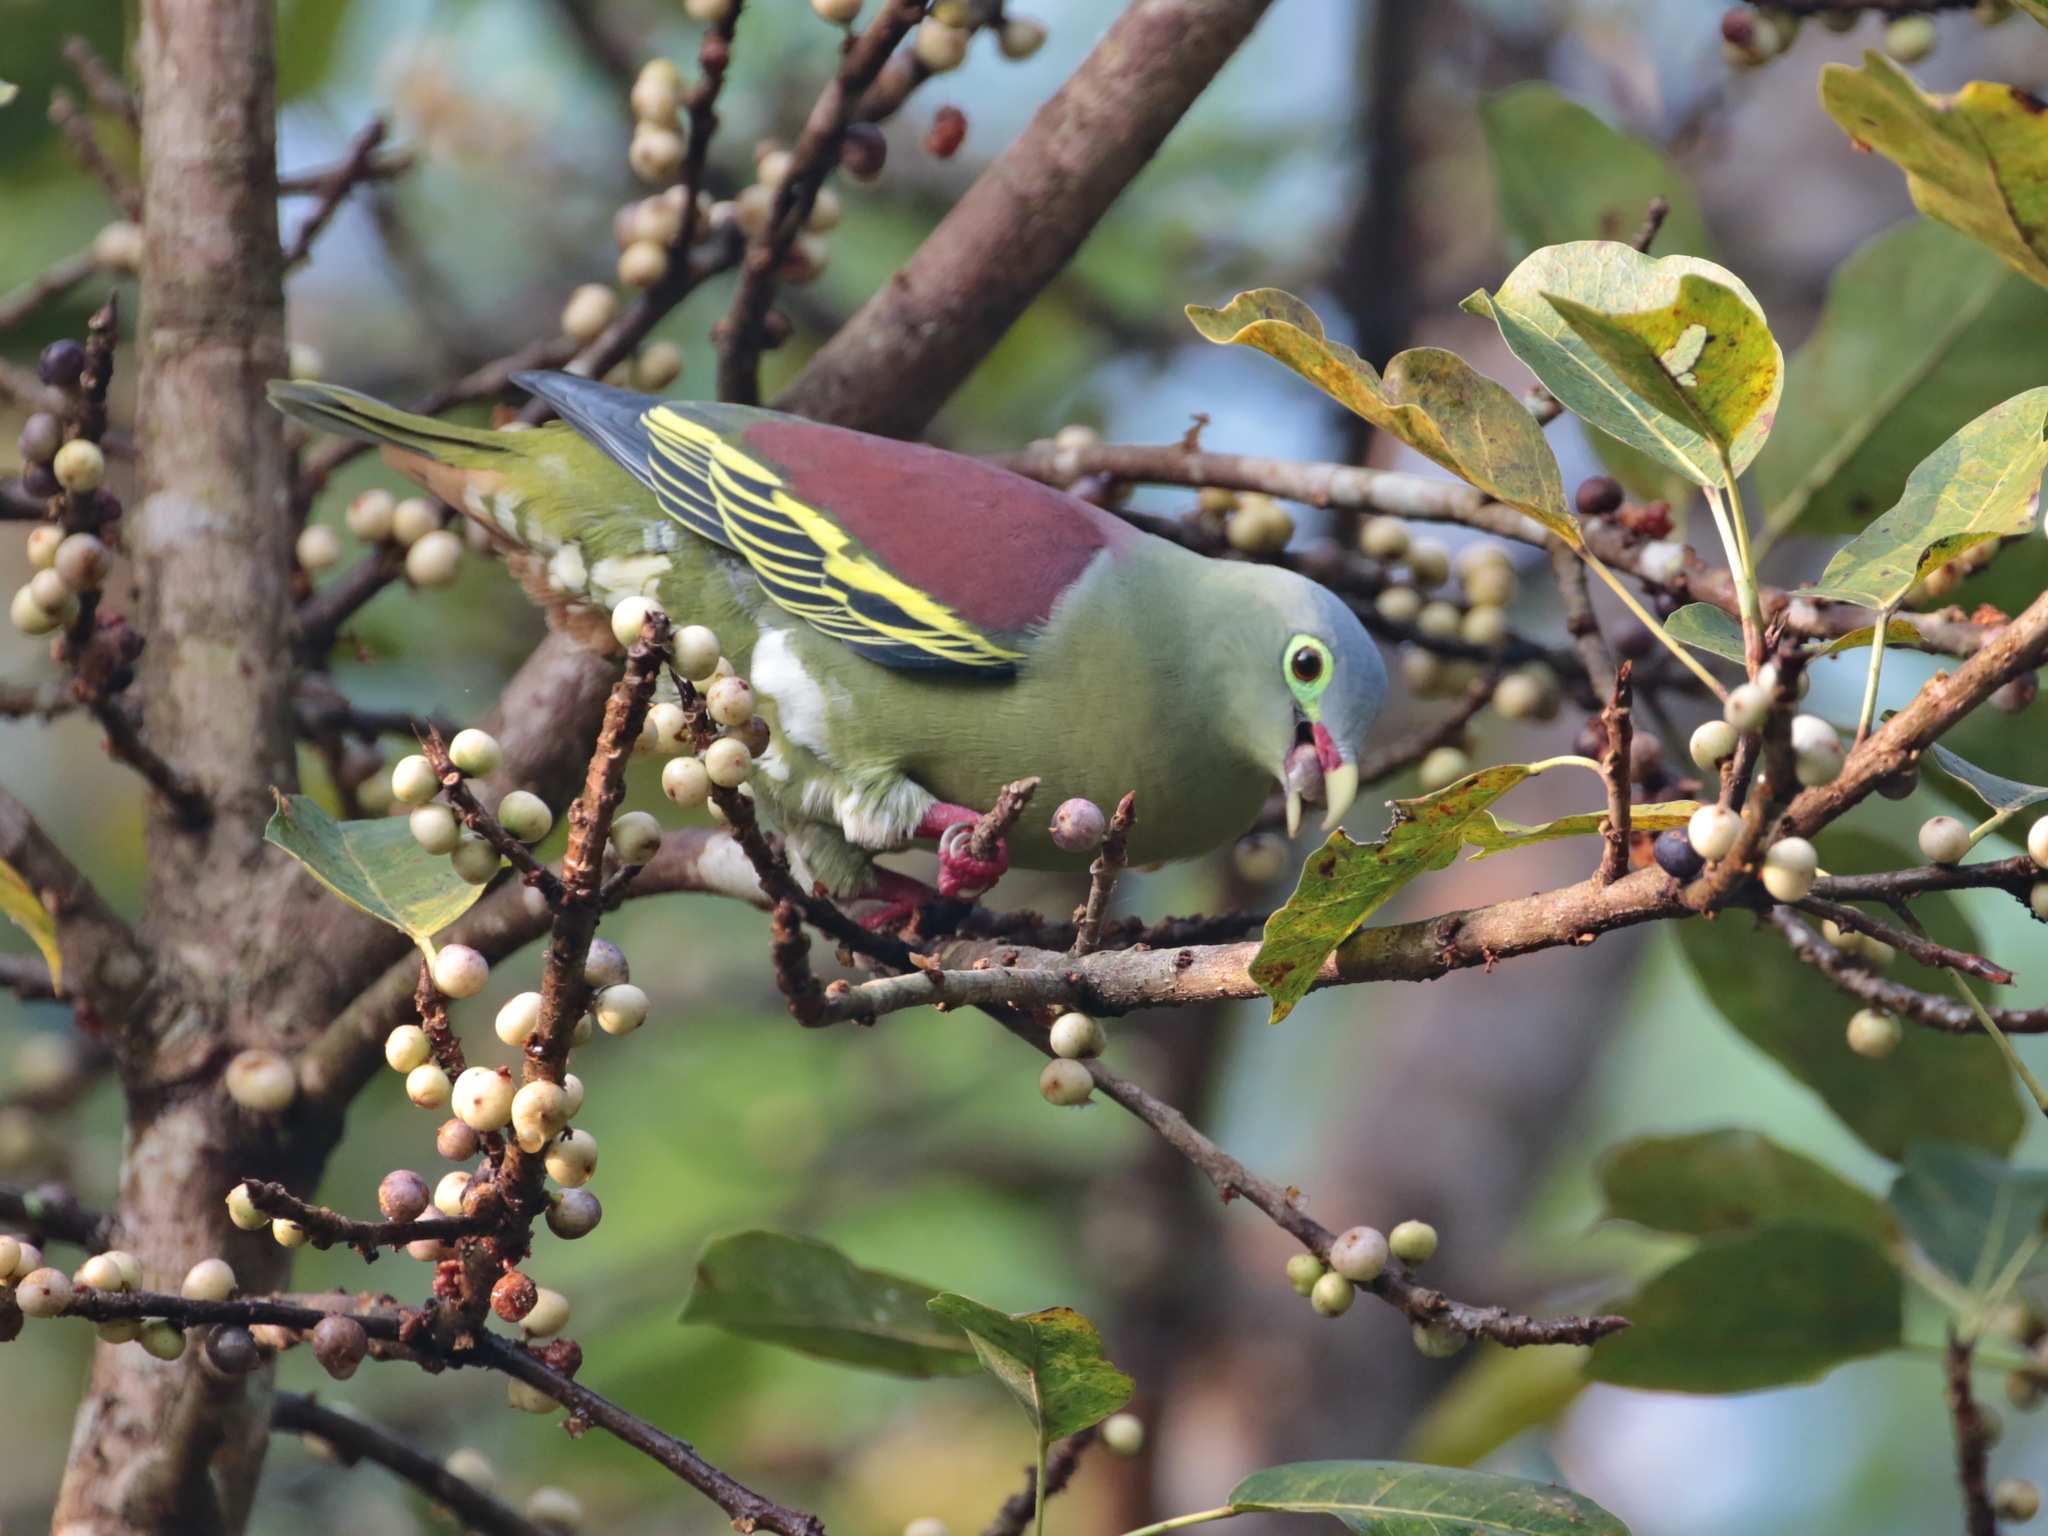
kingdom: Animalia
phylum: Chordata
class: Aves
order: Columbiformes
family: Columbidae
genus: Treron
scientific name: Treron curvirostra
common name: Thick-billed green pigeon
